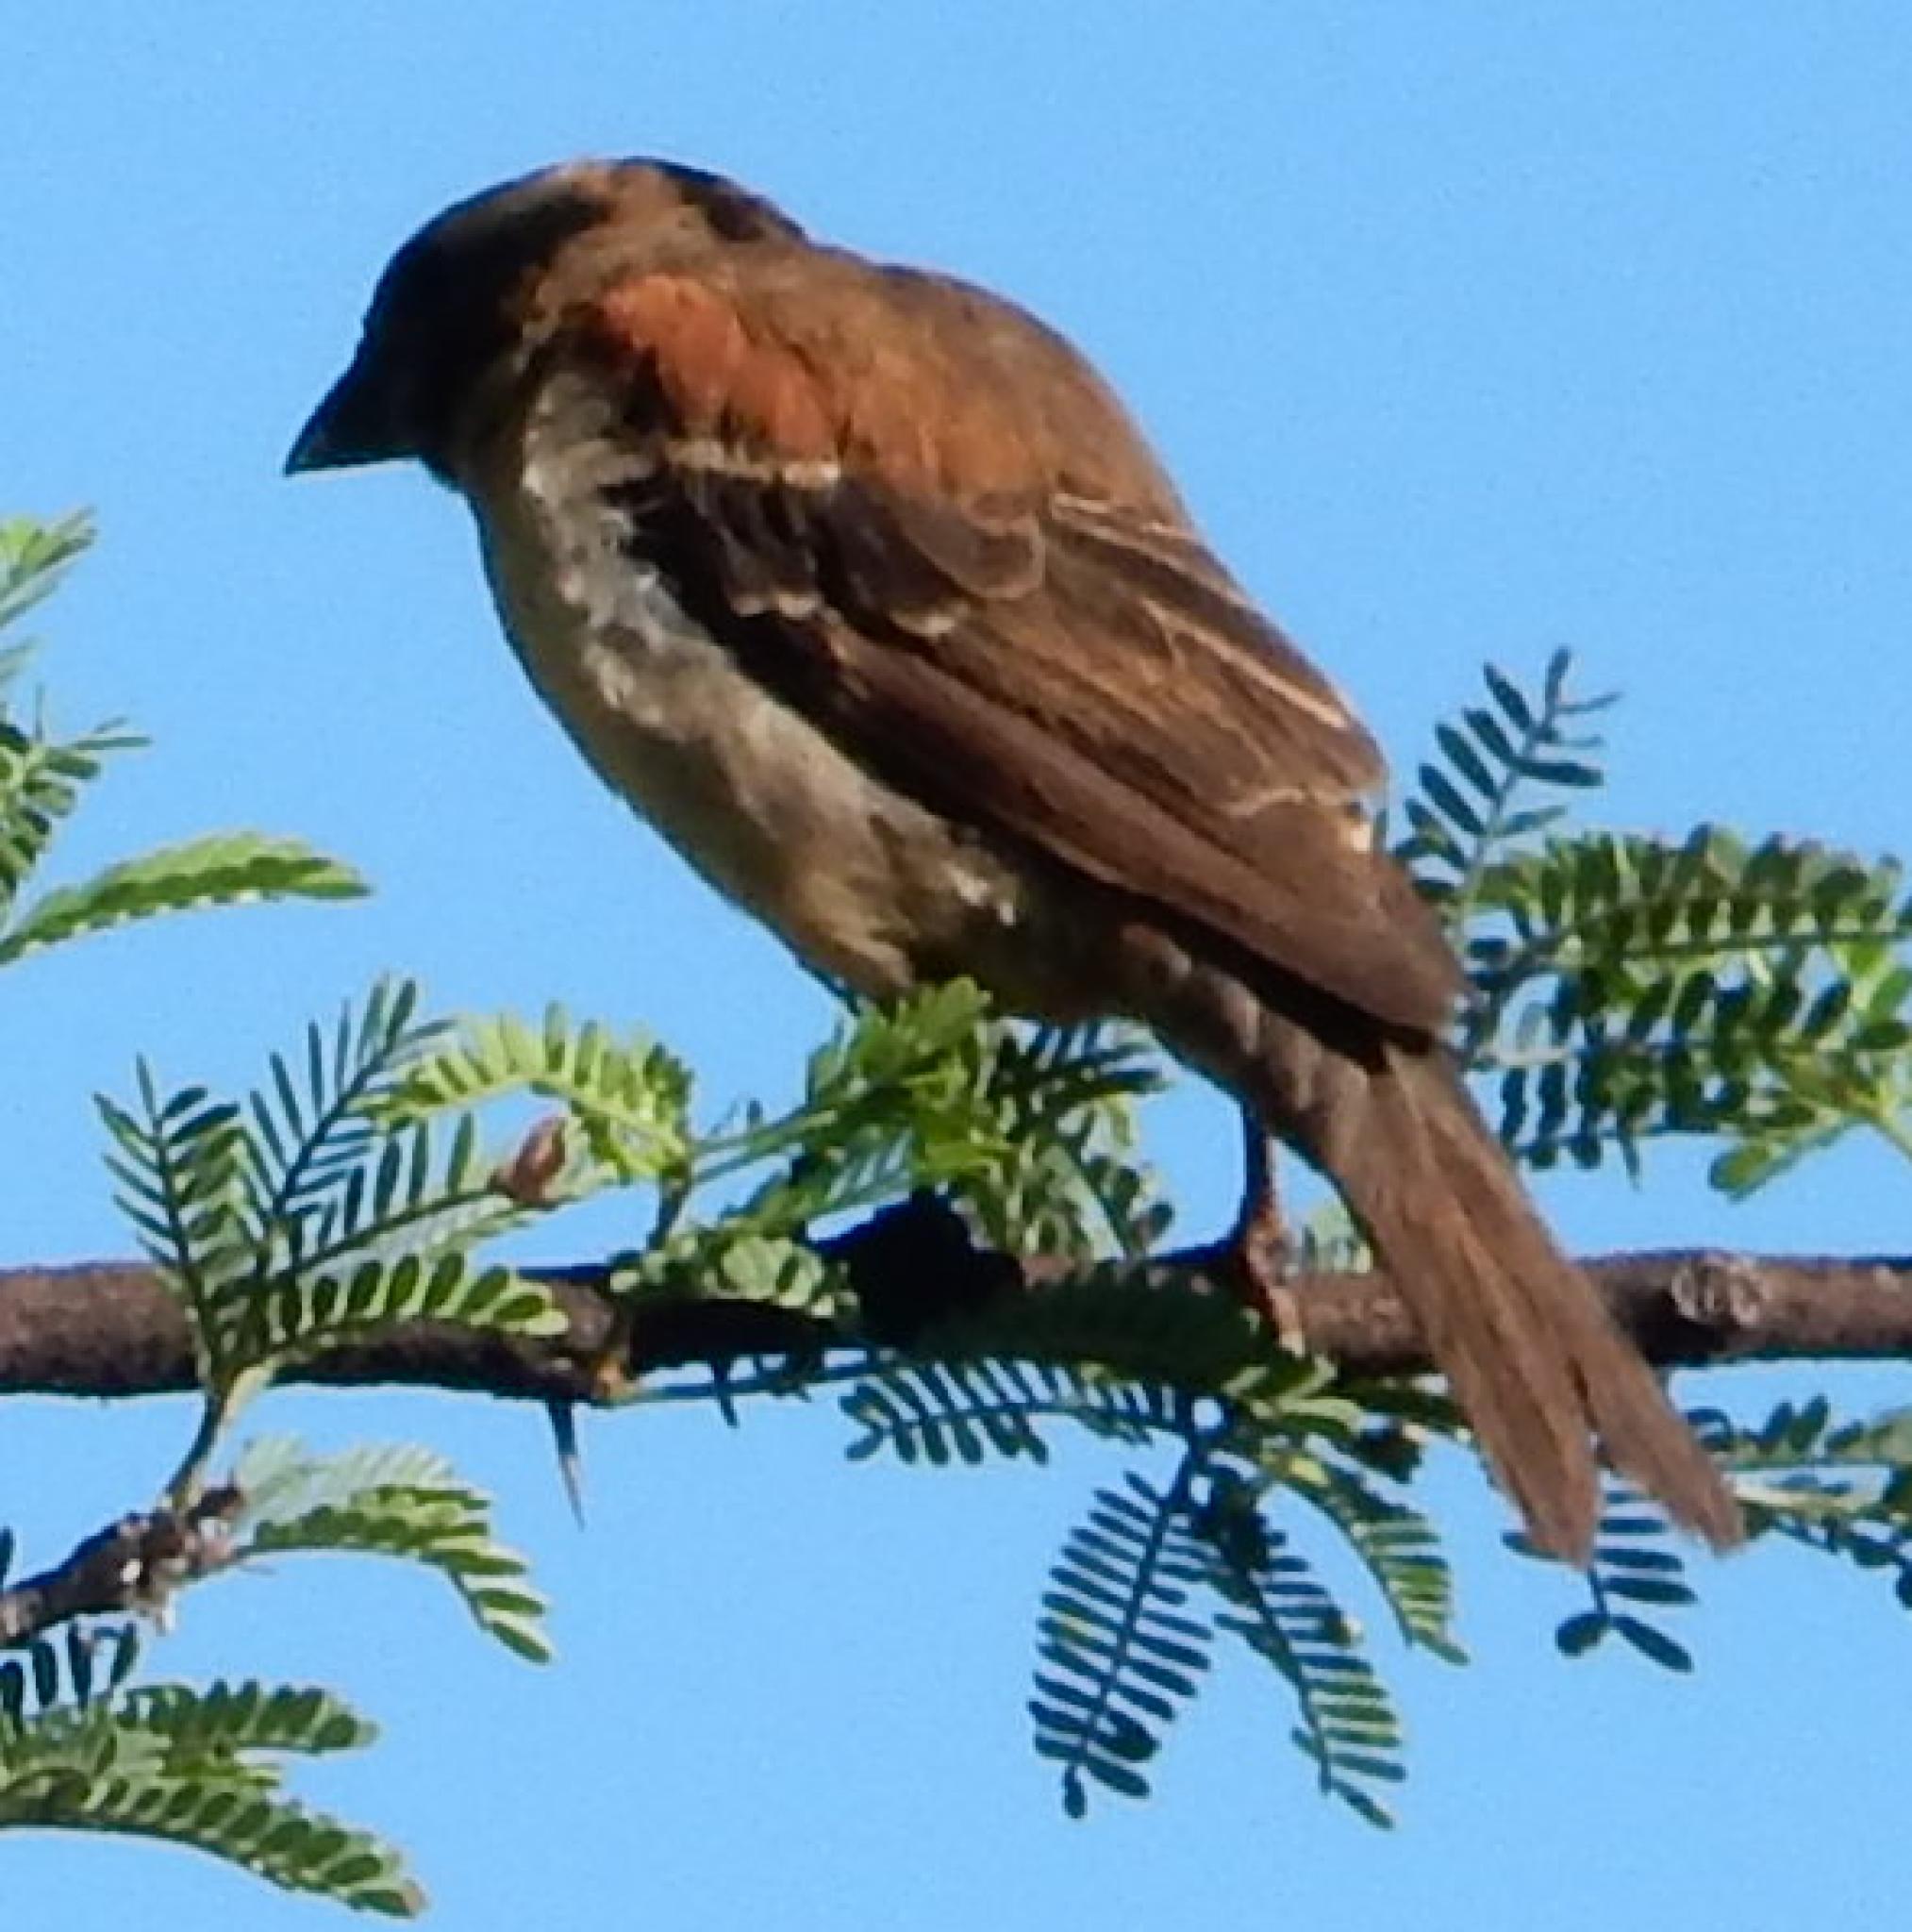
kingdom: Animalia
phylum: Chordata
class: Aves
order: Passeriformes
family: Passeridae
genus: Passer
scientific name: Passer melanurus
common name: Cape sparrow
